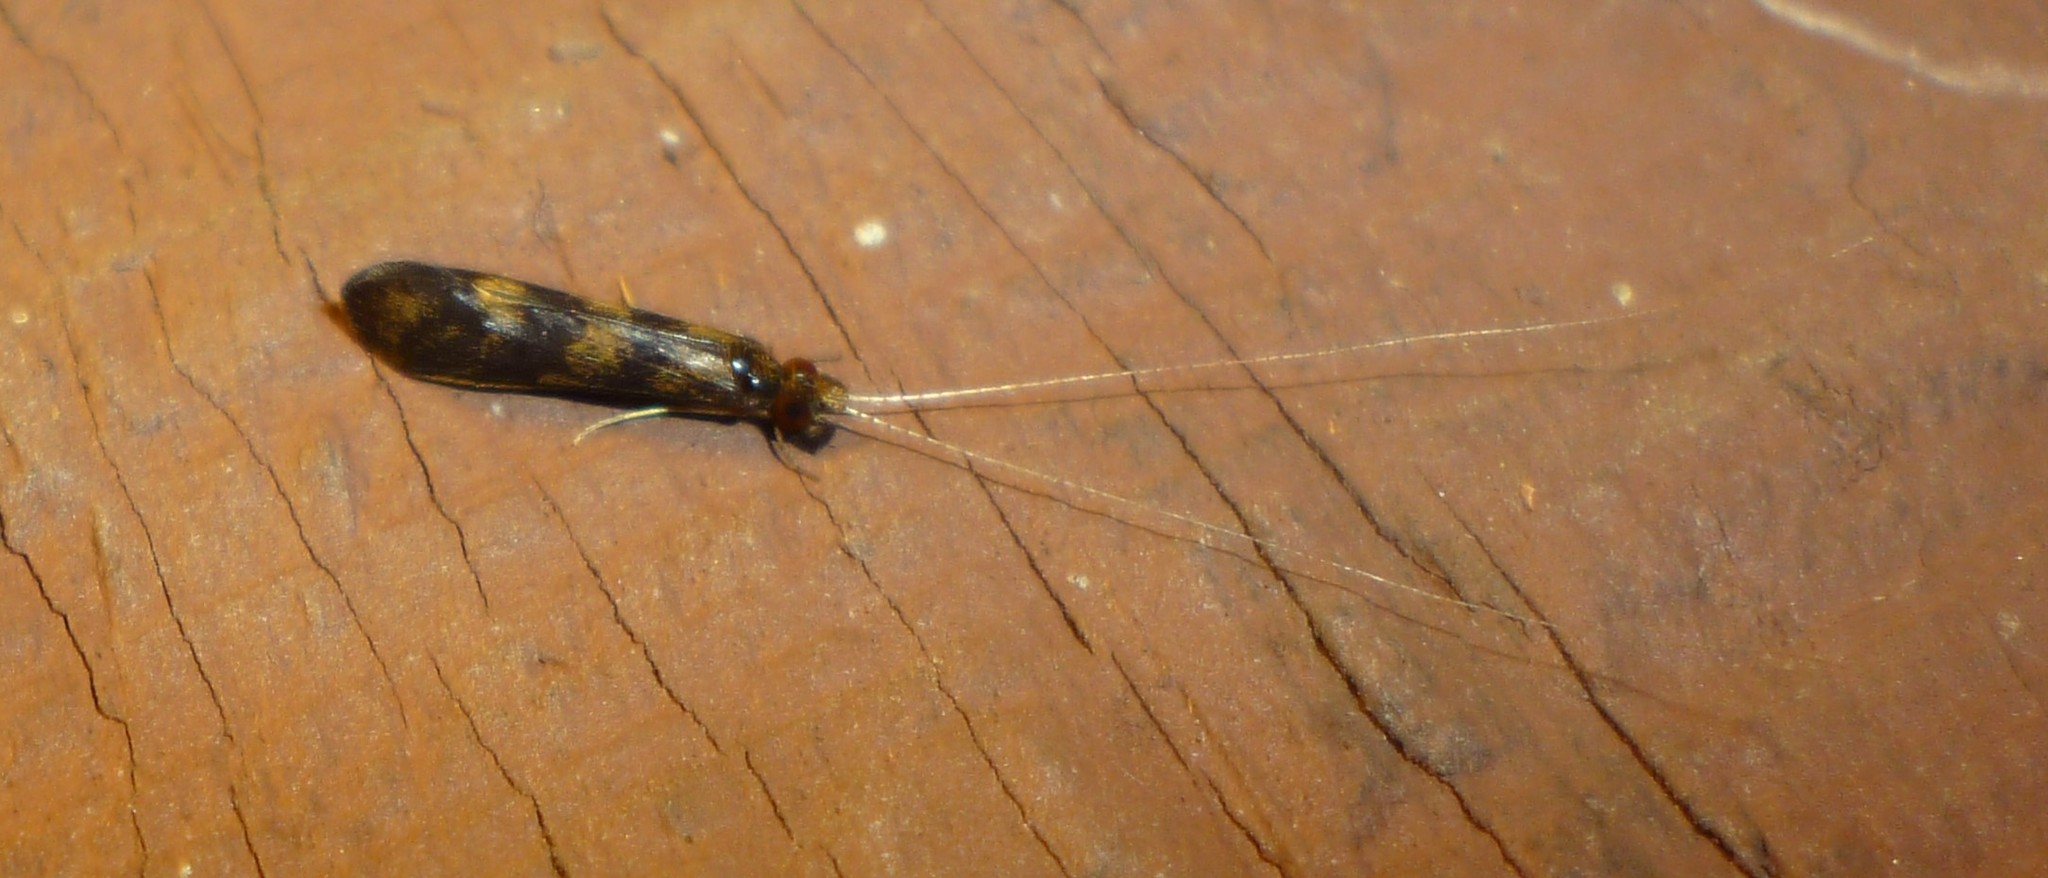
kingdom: Animalia
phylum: Arthropoda
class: Insecta
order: Trichoptera
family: Leptoceridae
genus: Mystacides
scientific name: Mystacides interjectus
